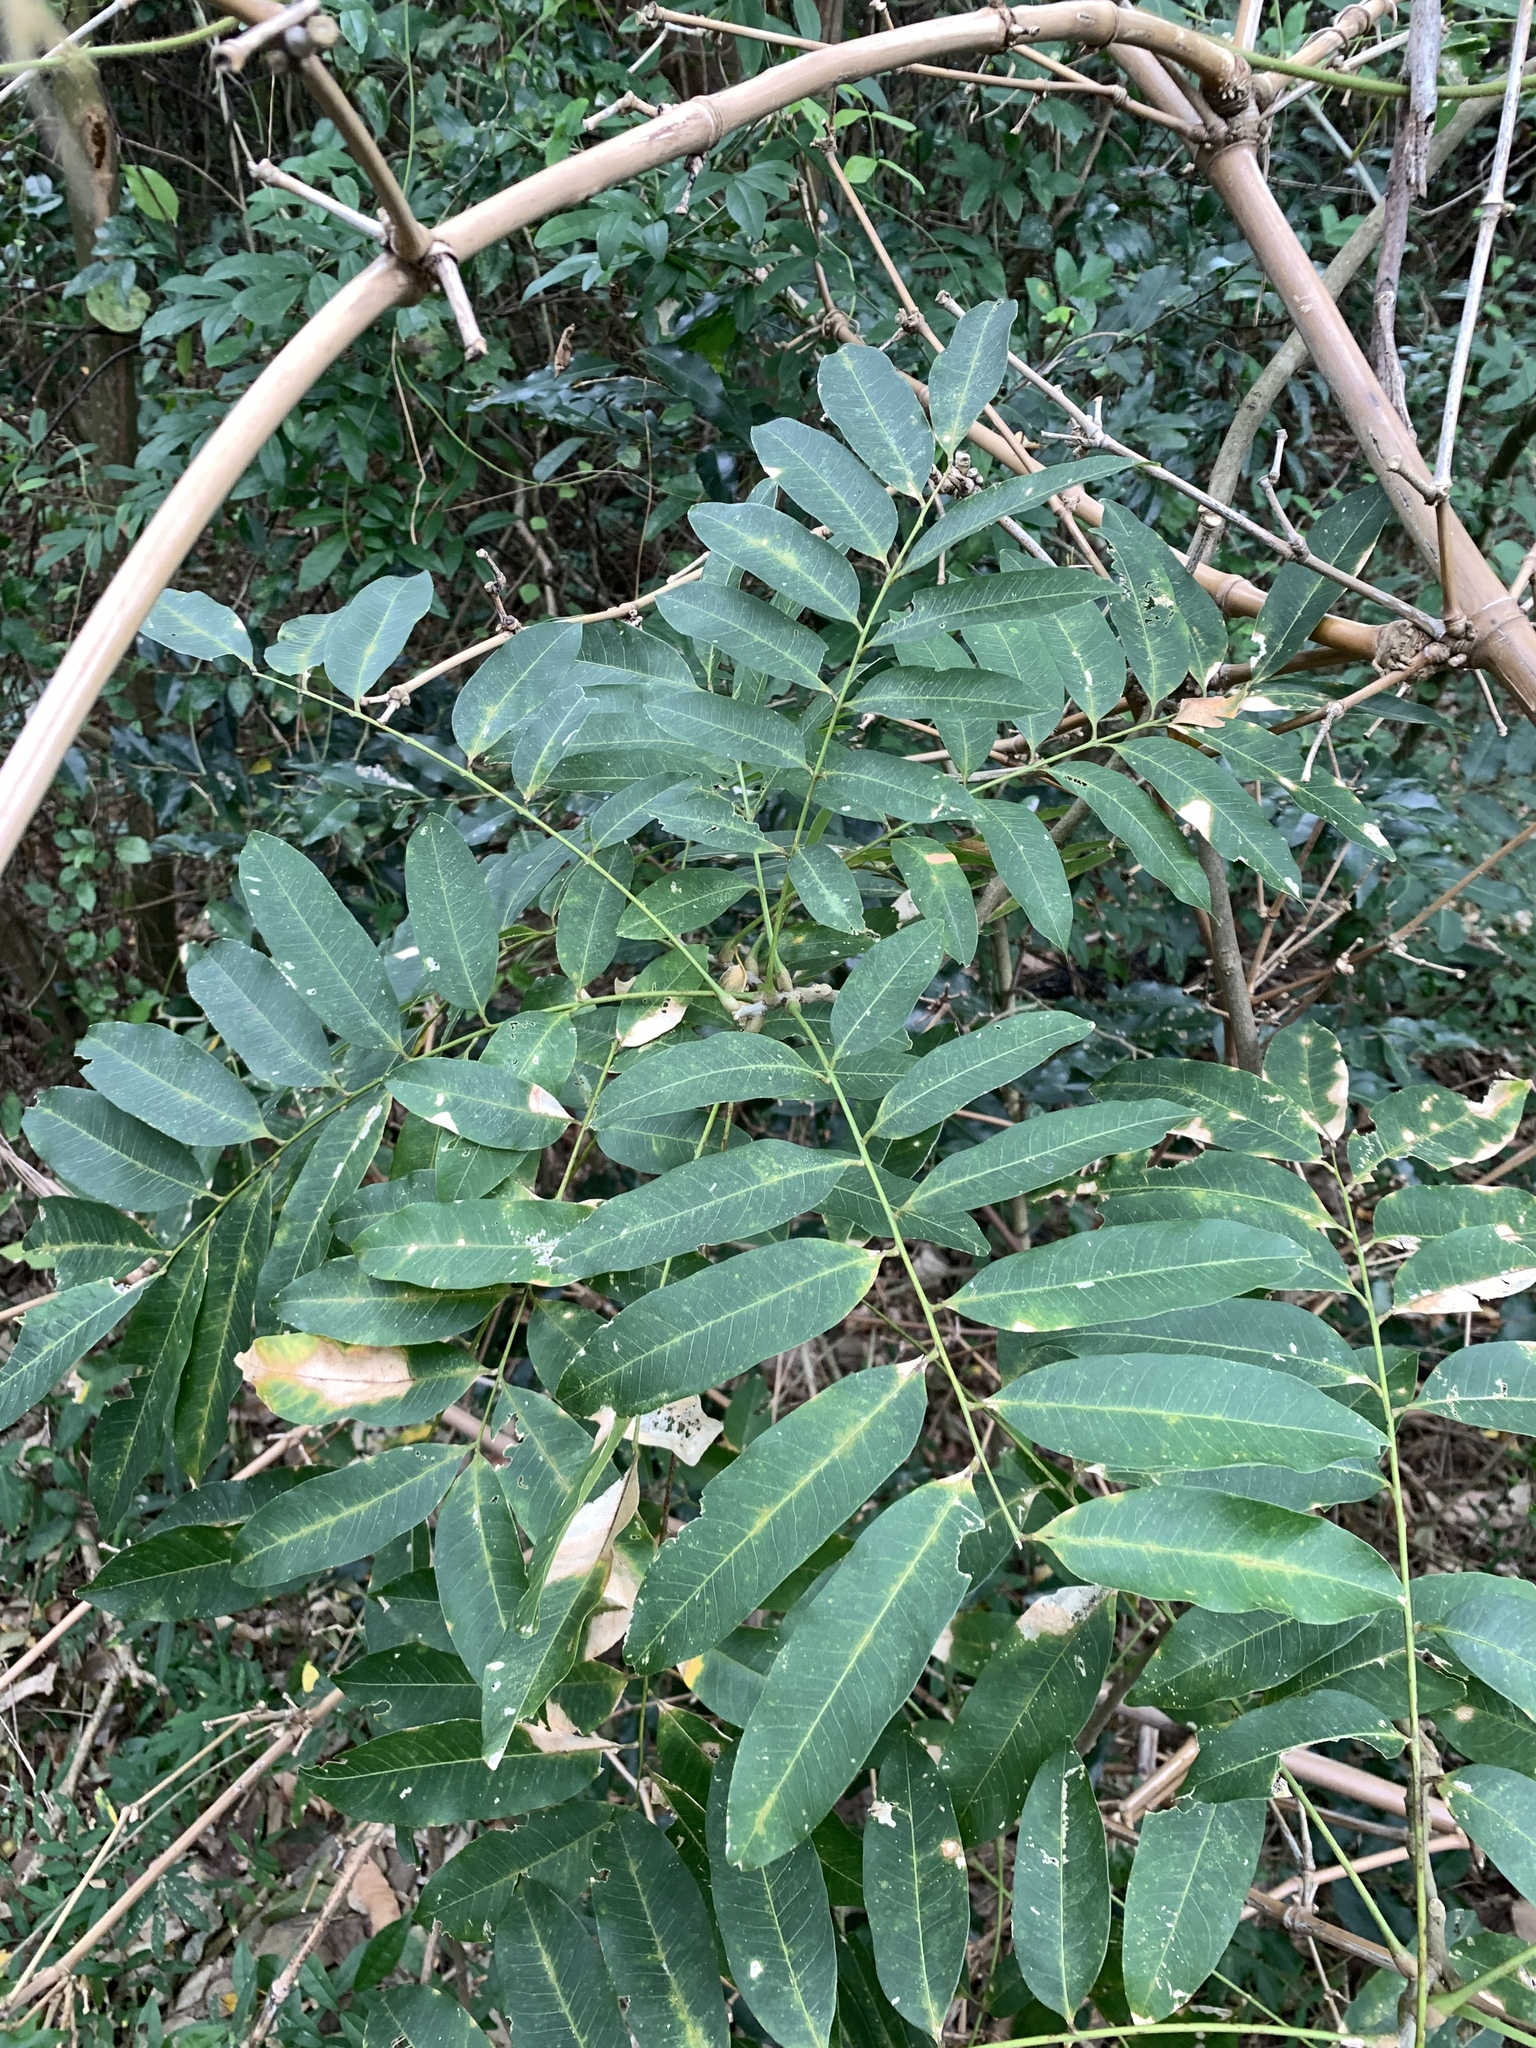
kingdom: Plantae
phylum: Tracheophyta
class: Magnoliopsida
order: Sapindales
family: Sapindaceae
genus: Sapindus
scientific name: Sapindus mukorossi
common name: Chinese soapberry
